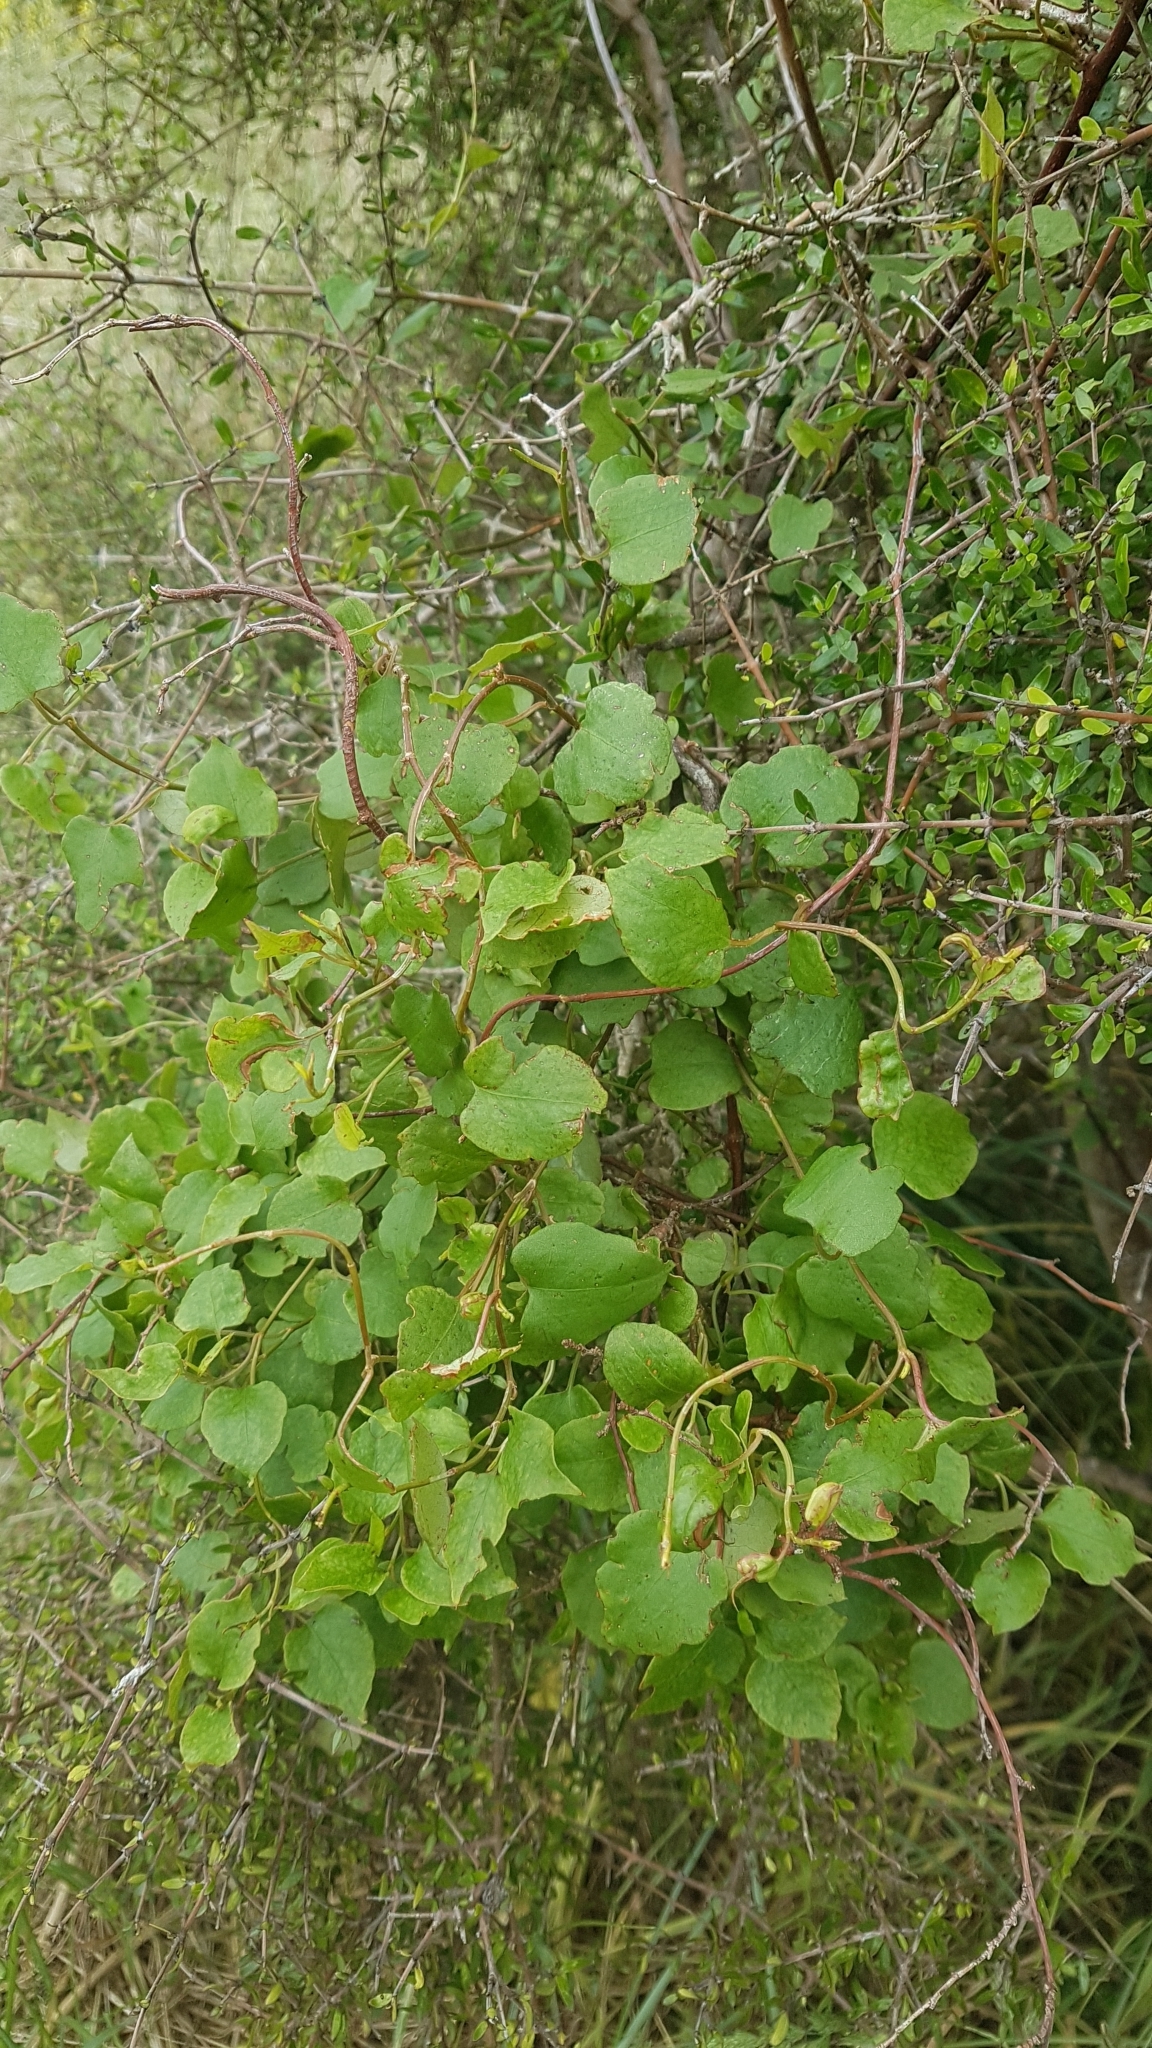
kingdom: Plantae
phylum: Tracheophyta
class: Magnoliopsida
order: Caryophyllales
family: Polygonaceae
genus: Muehlenbeckia
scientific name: Muehlenbeckia australis
